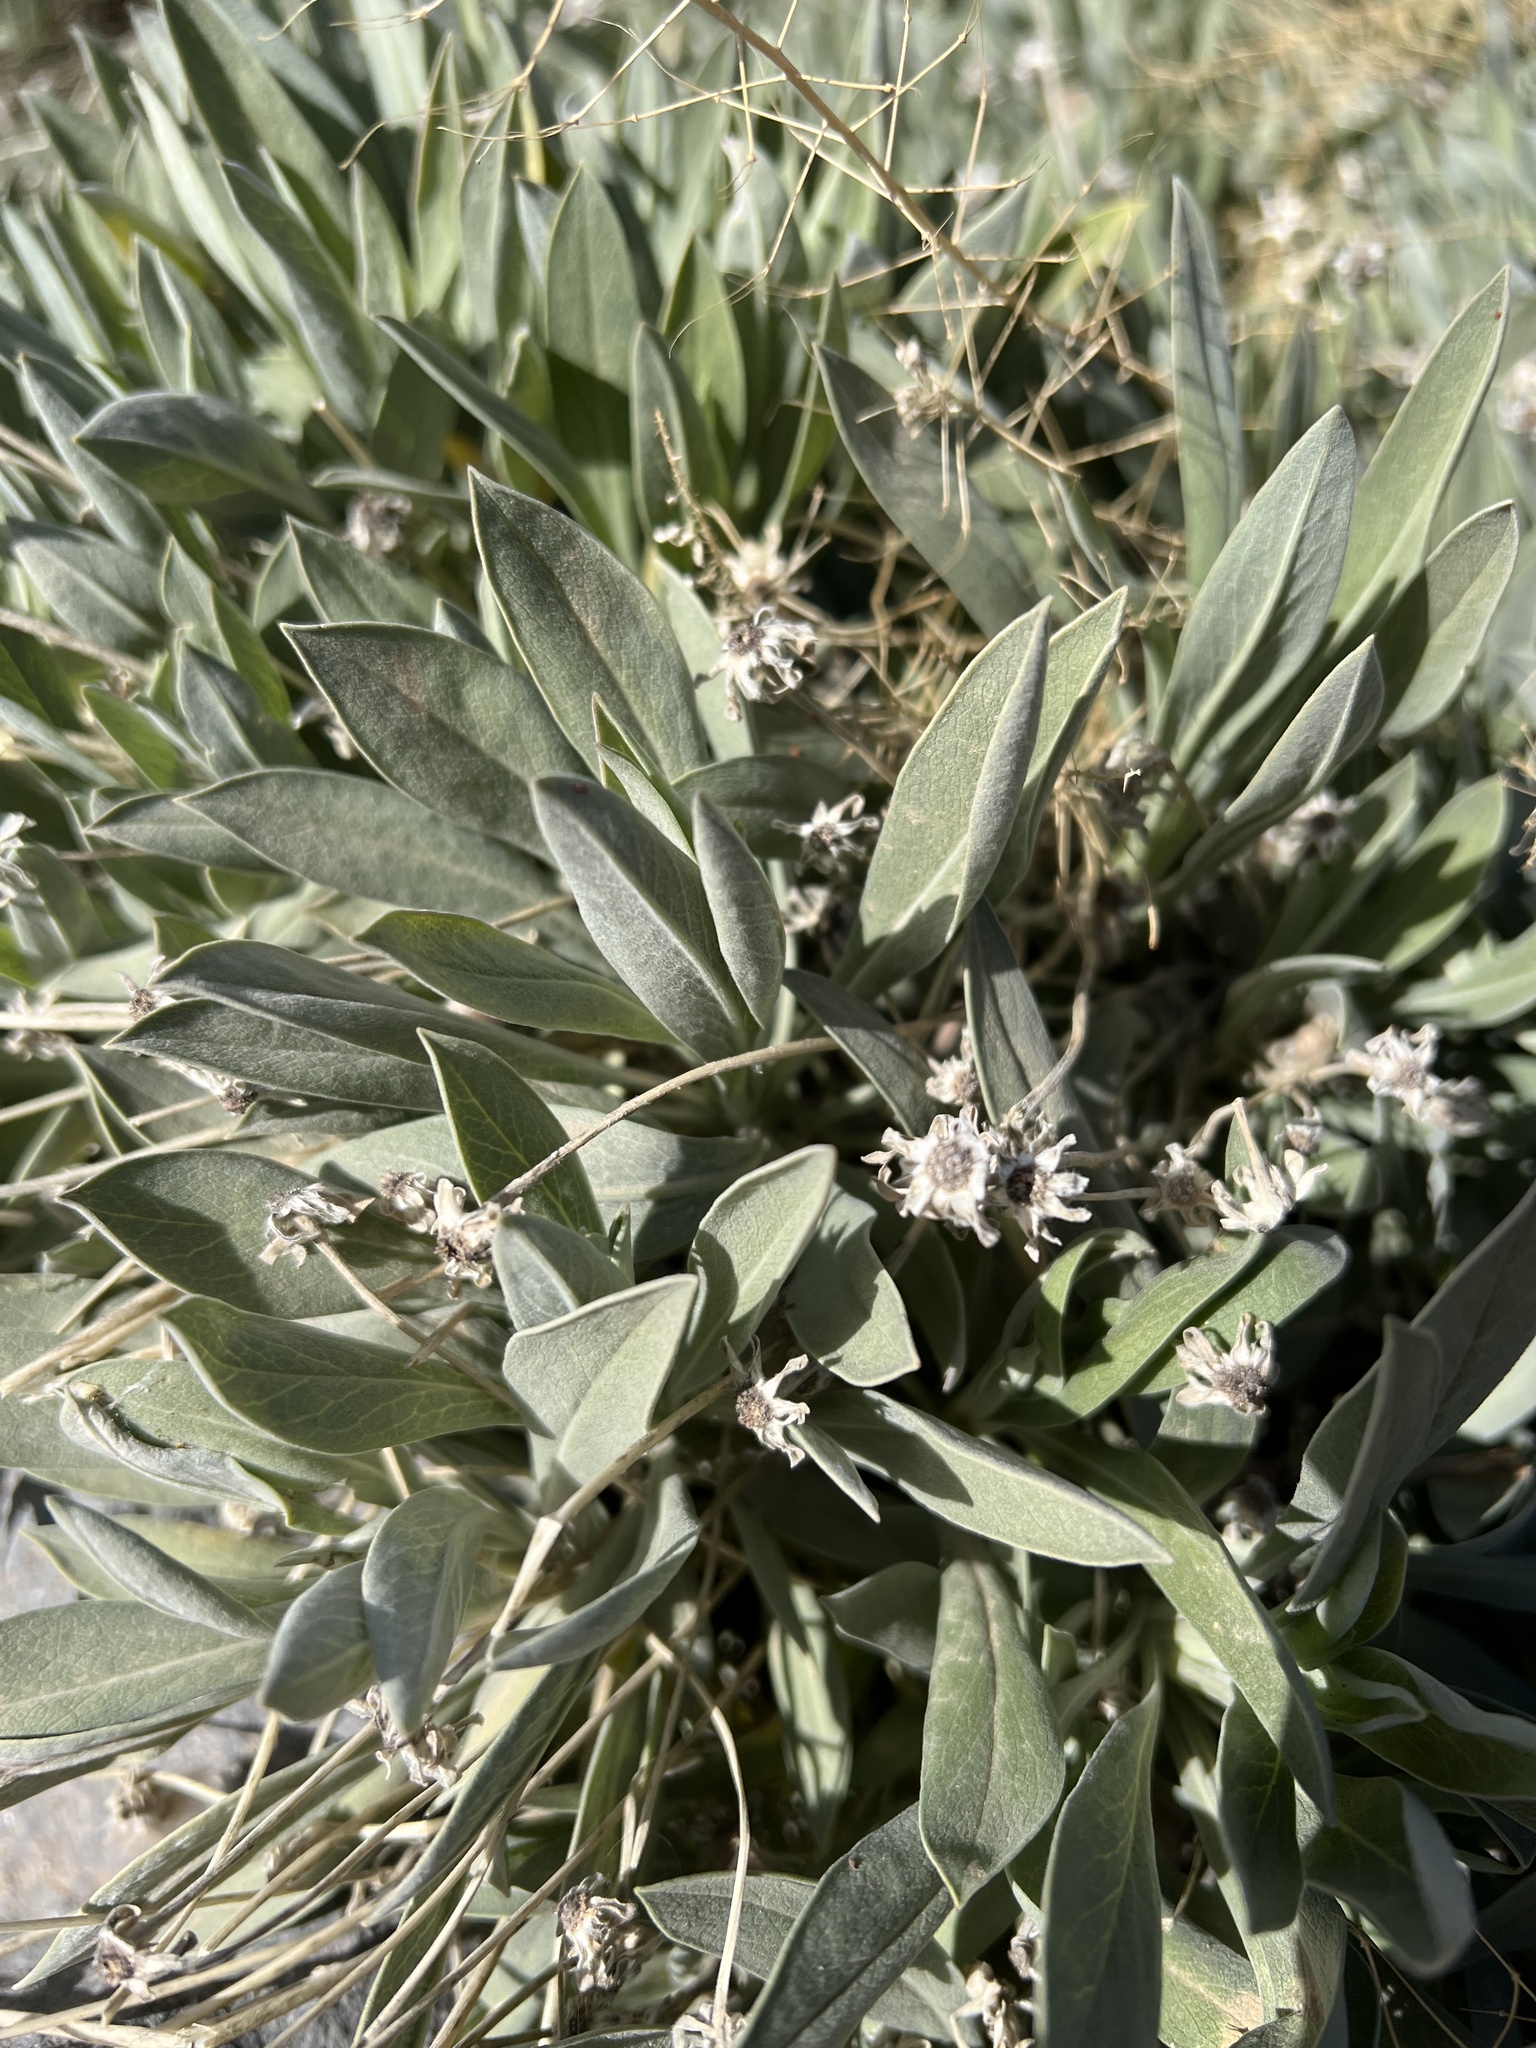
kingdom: Plantae
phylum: Tracheophyta
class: Magnoliopsida
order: Dipsacales
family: Caprifoliaceae
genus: Pterocephalus
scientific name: Pterocephalus lasiospermus
